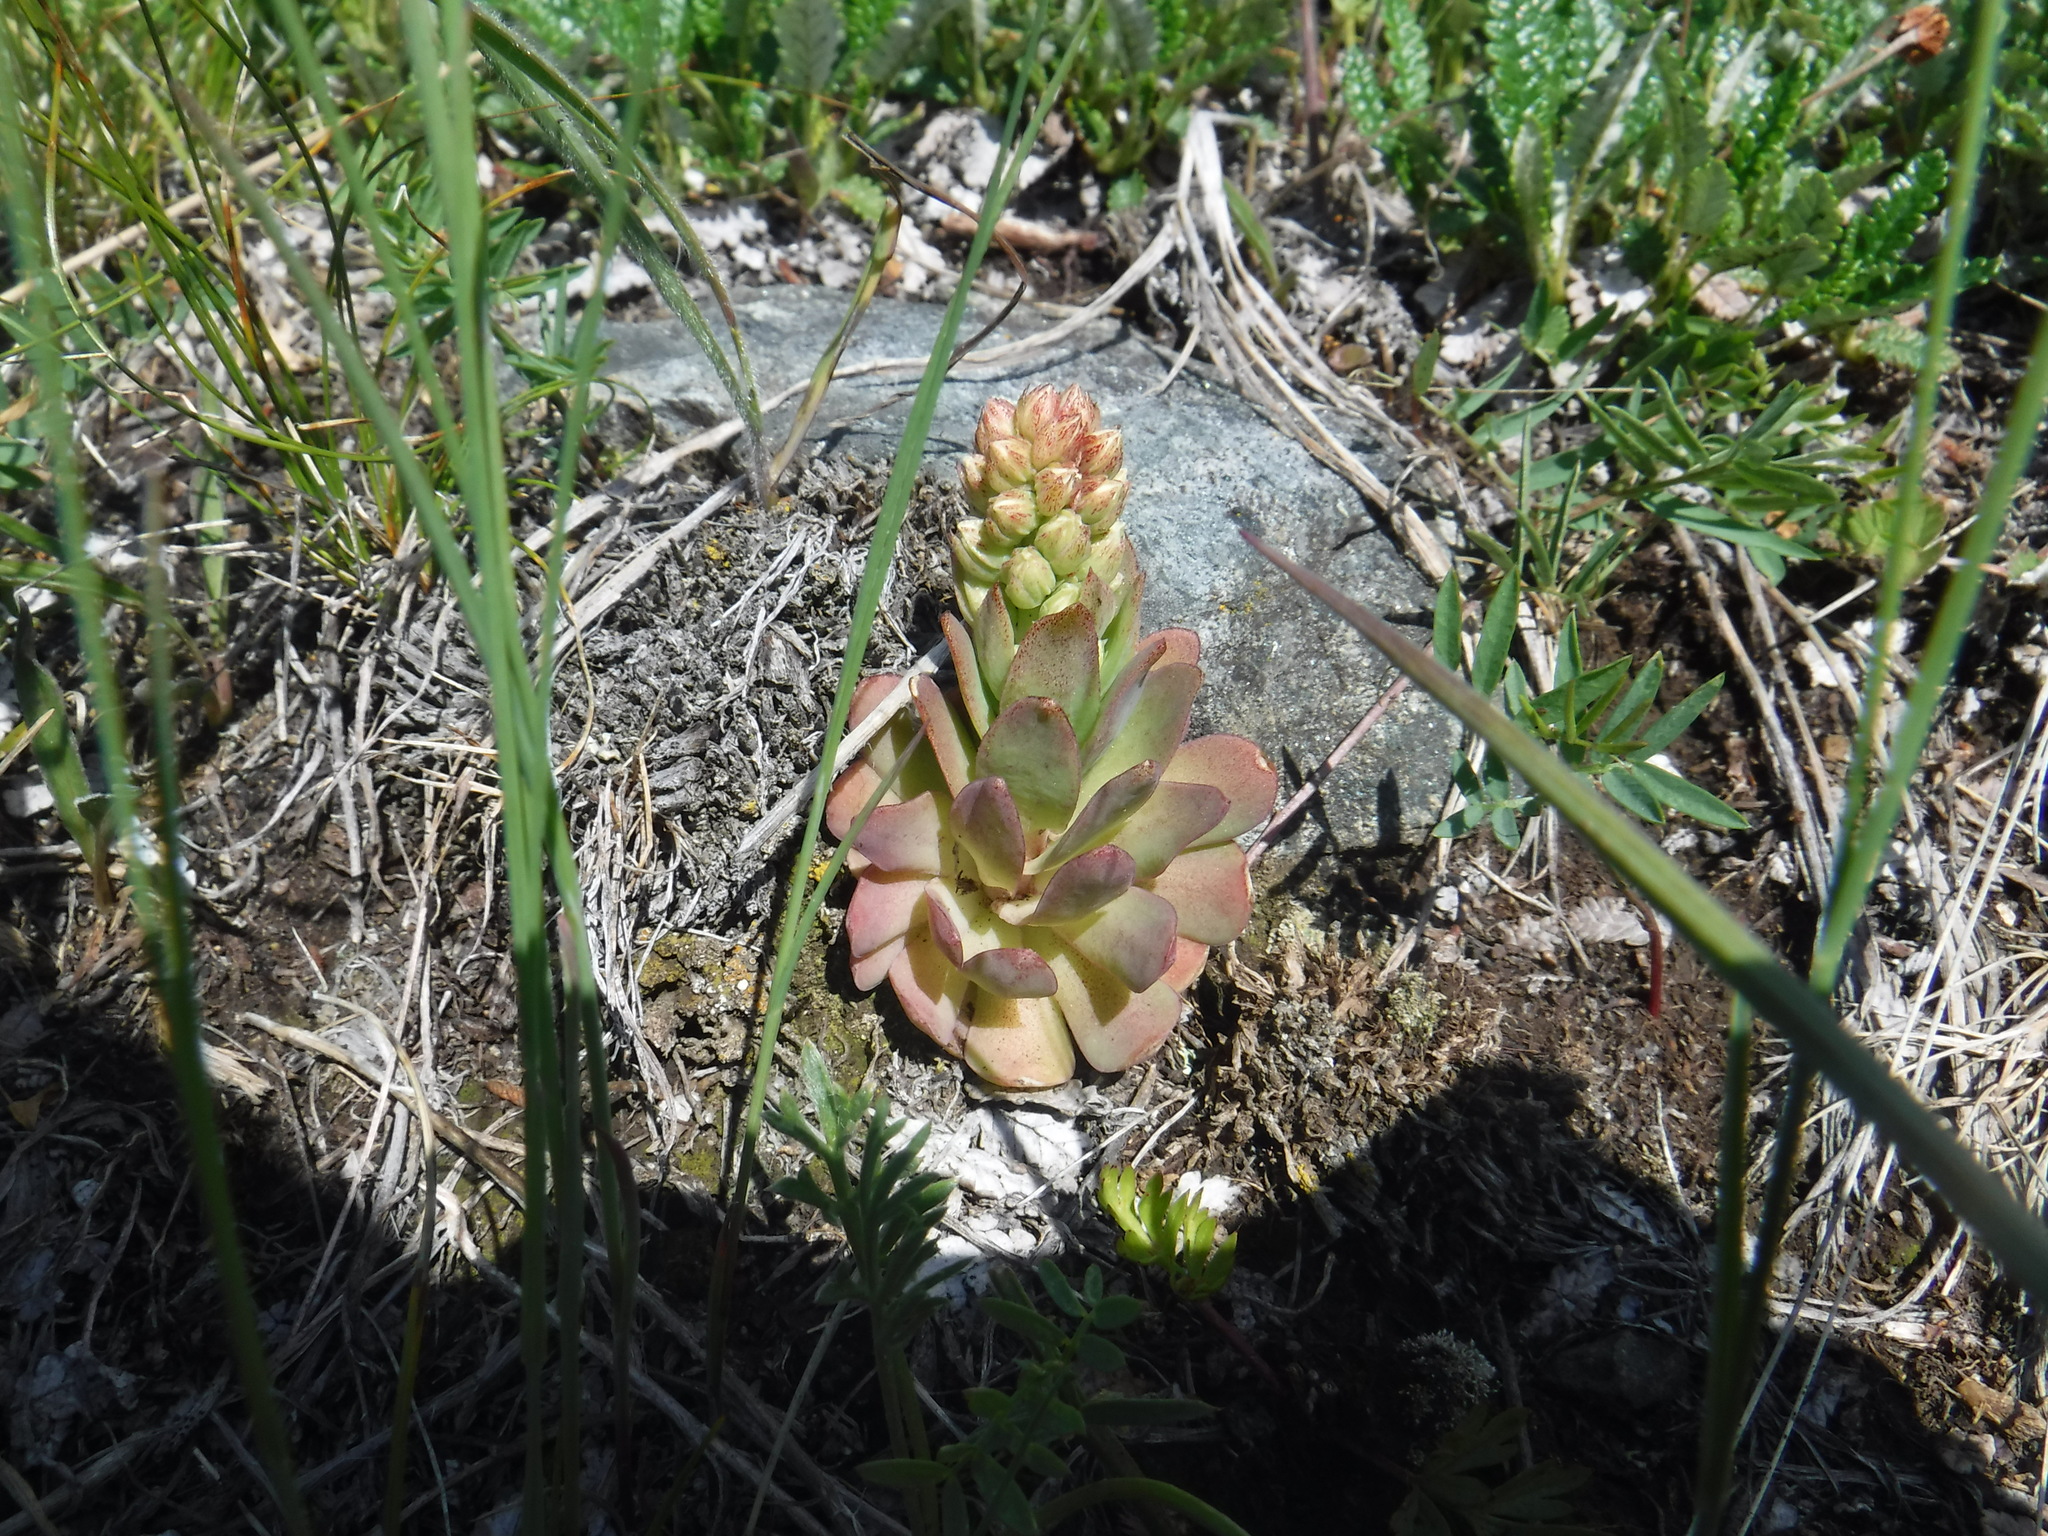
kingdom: Plantae
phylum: Tracheophyta
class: Magnoliopsida
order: Saxifragales
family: Crassulaceae
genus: Orostachys
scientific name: Orostachys malacophylla
